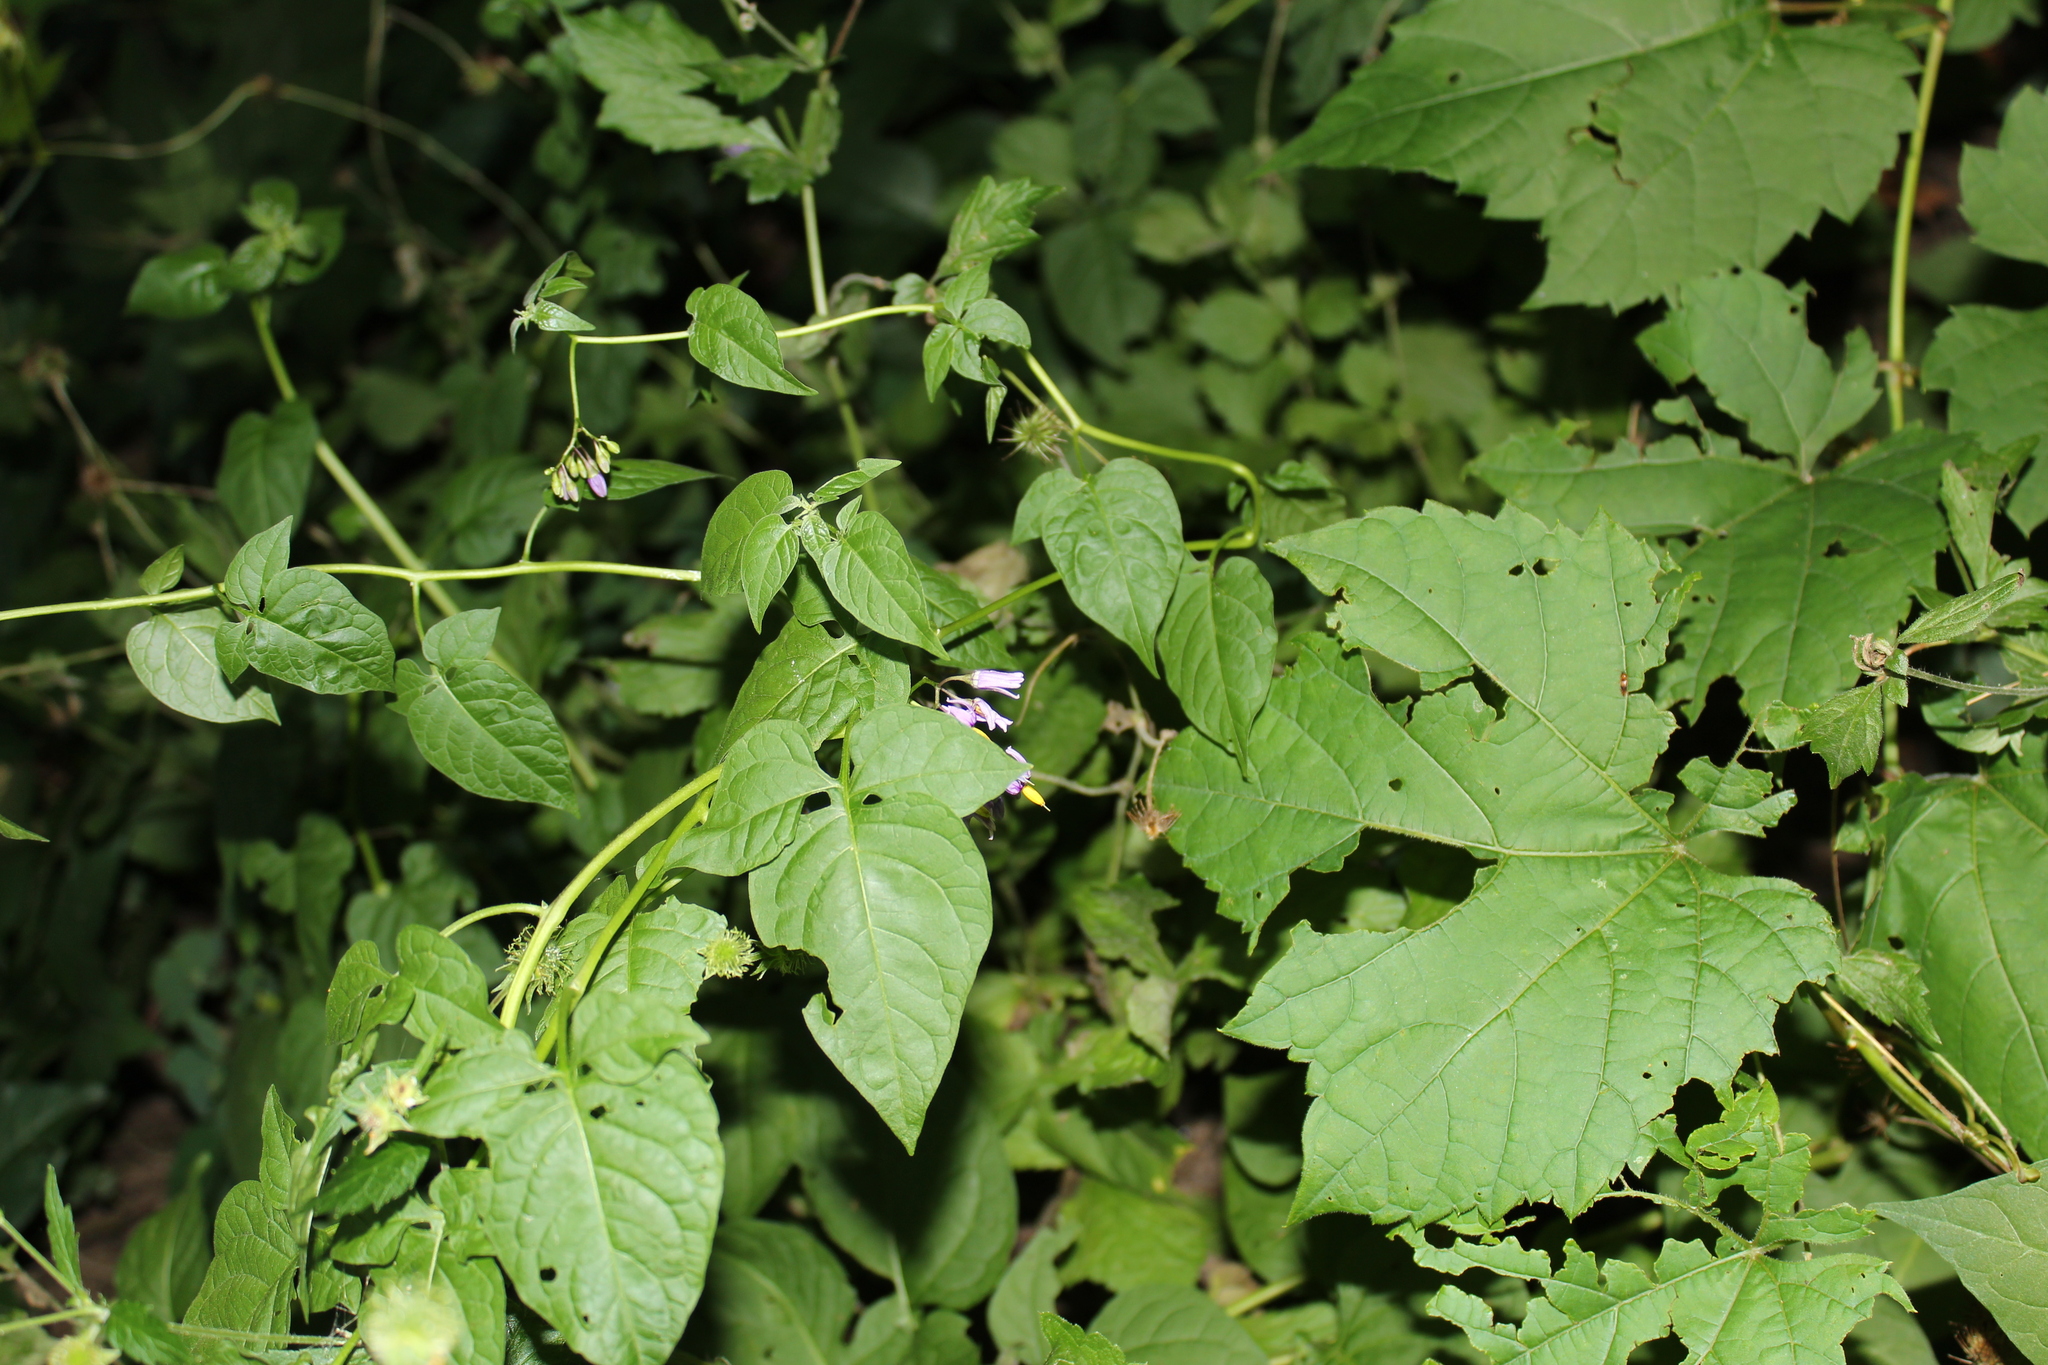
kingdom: Plantae
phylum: Tracheophyta
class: Magnoliopsida
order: Solanales
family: Solanaceae
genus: Solanum
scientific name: Solanum dulcamara
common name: Climbing nightshade
